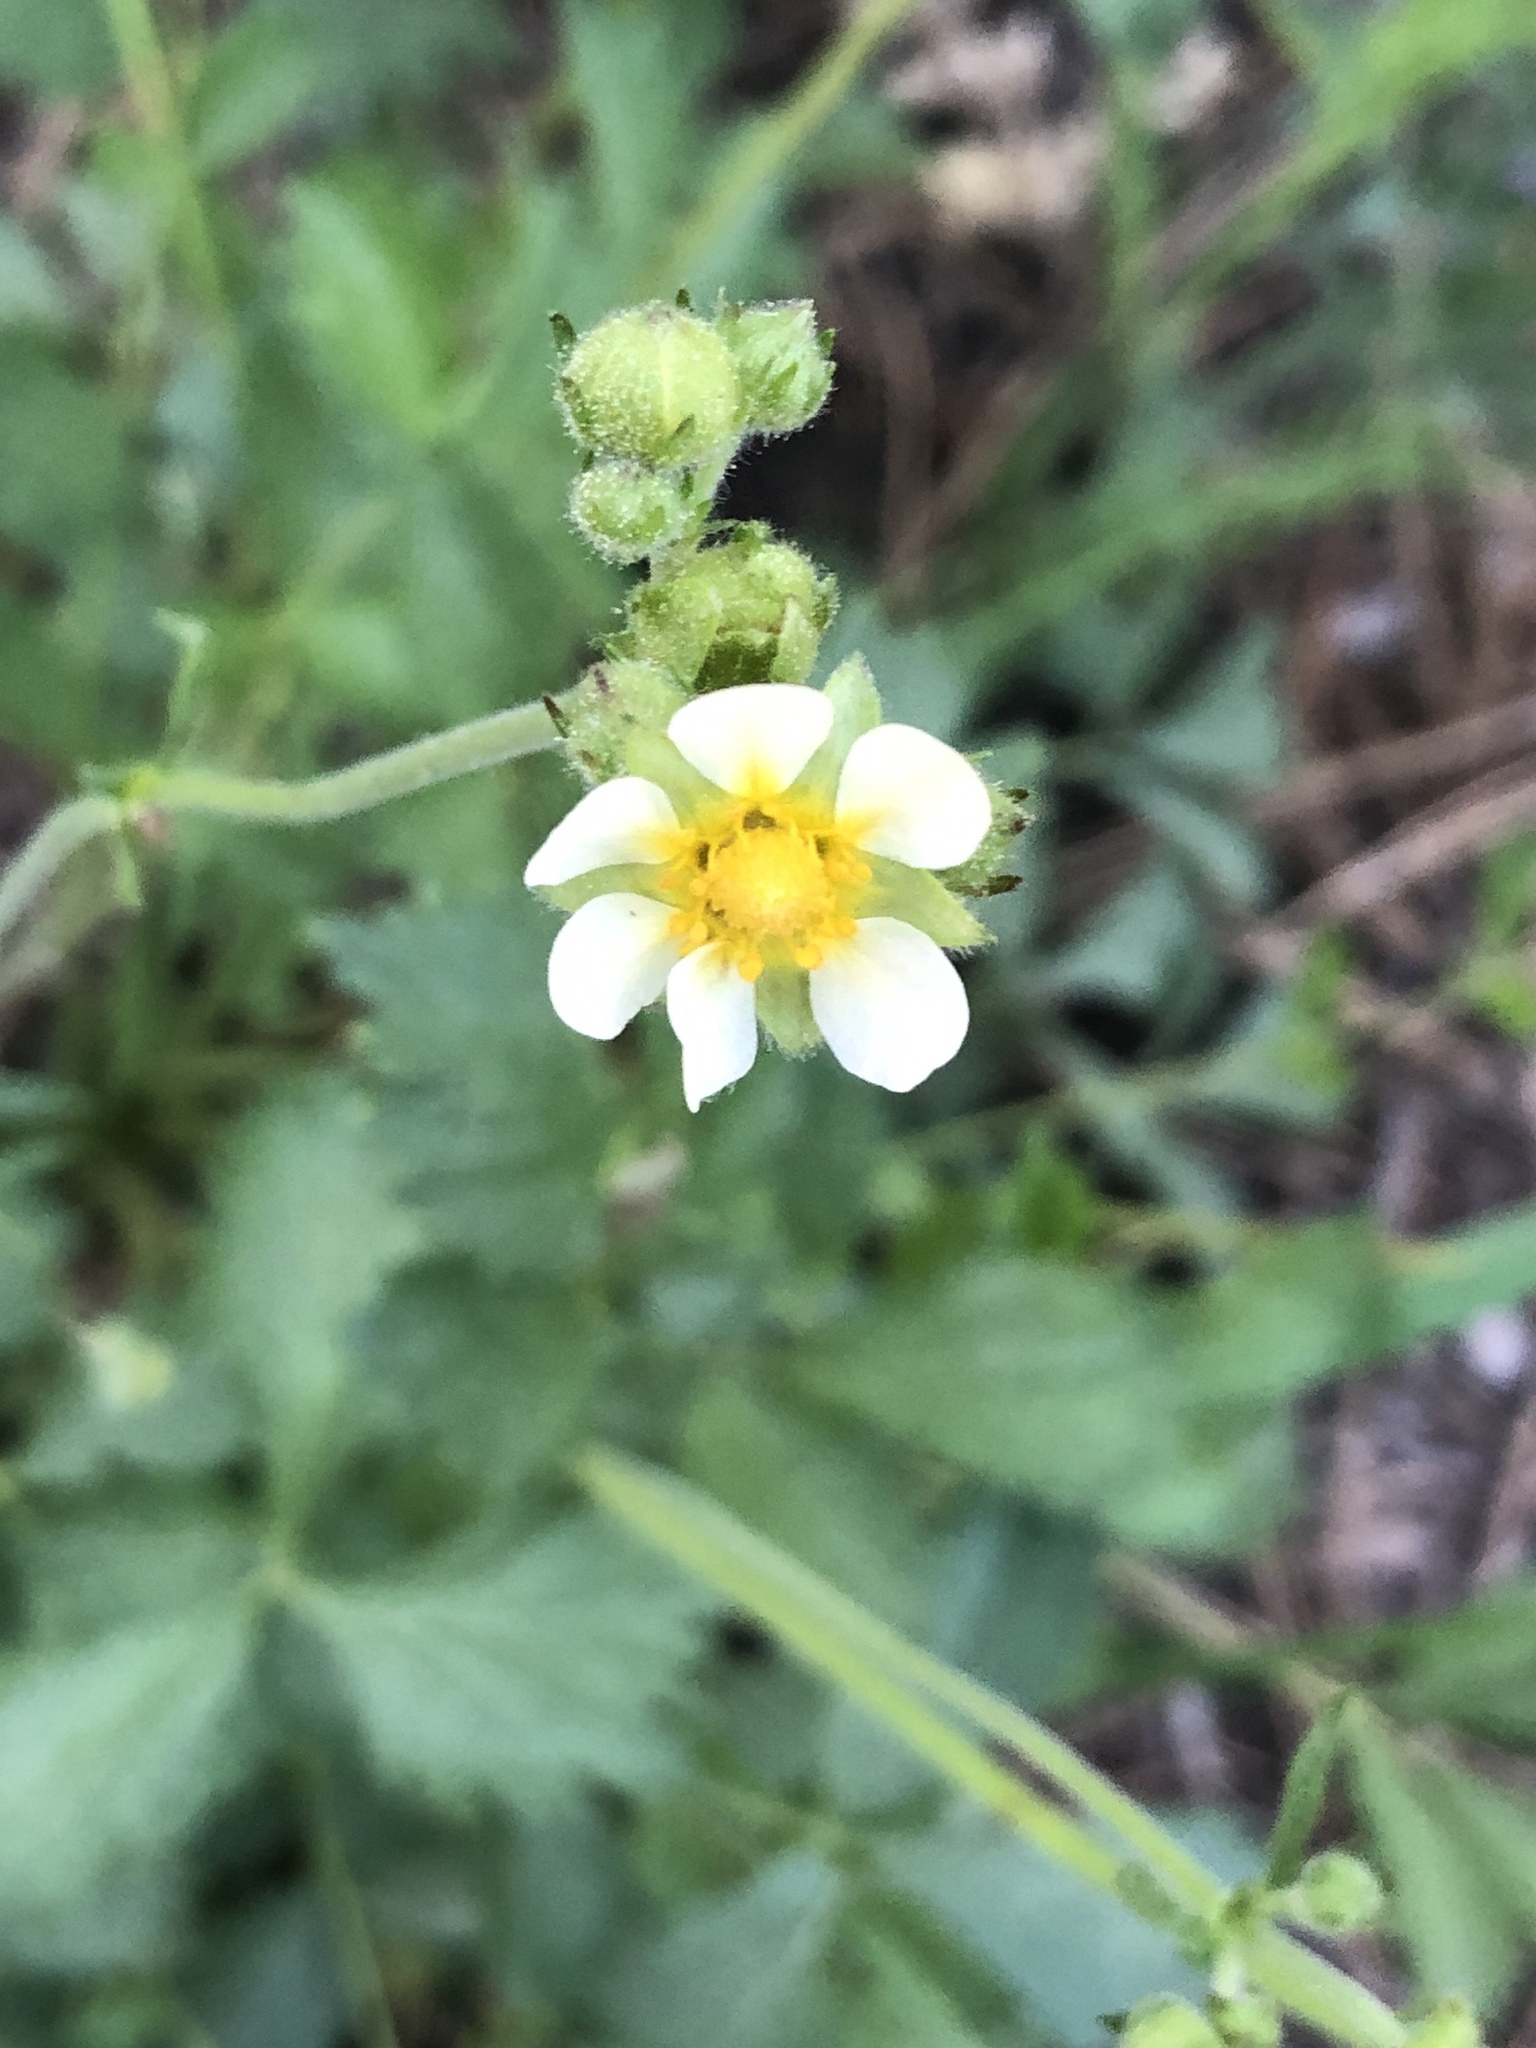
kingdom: Plantae
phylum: Tracheophyta
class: Magnoliopsida
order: Rosales
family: Rosaceae
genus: Drymocallis
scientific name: Drymocallis glandulosa
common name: Sticky cinquefoil
